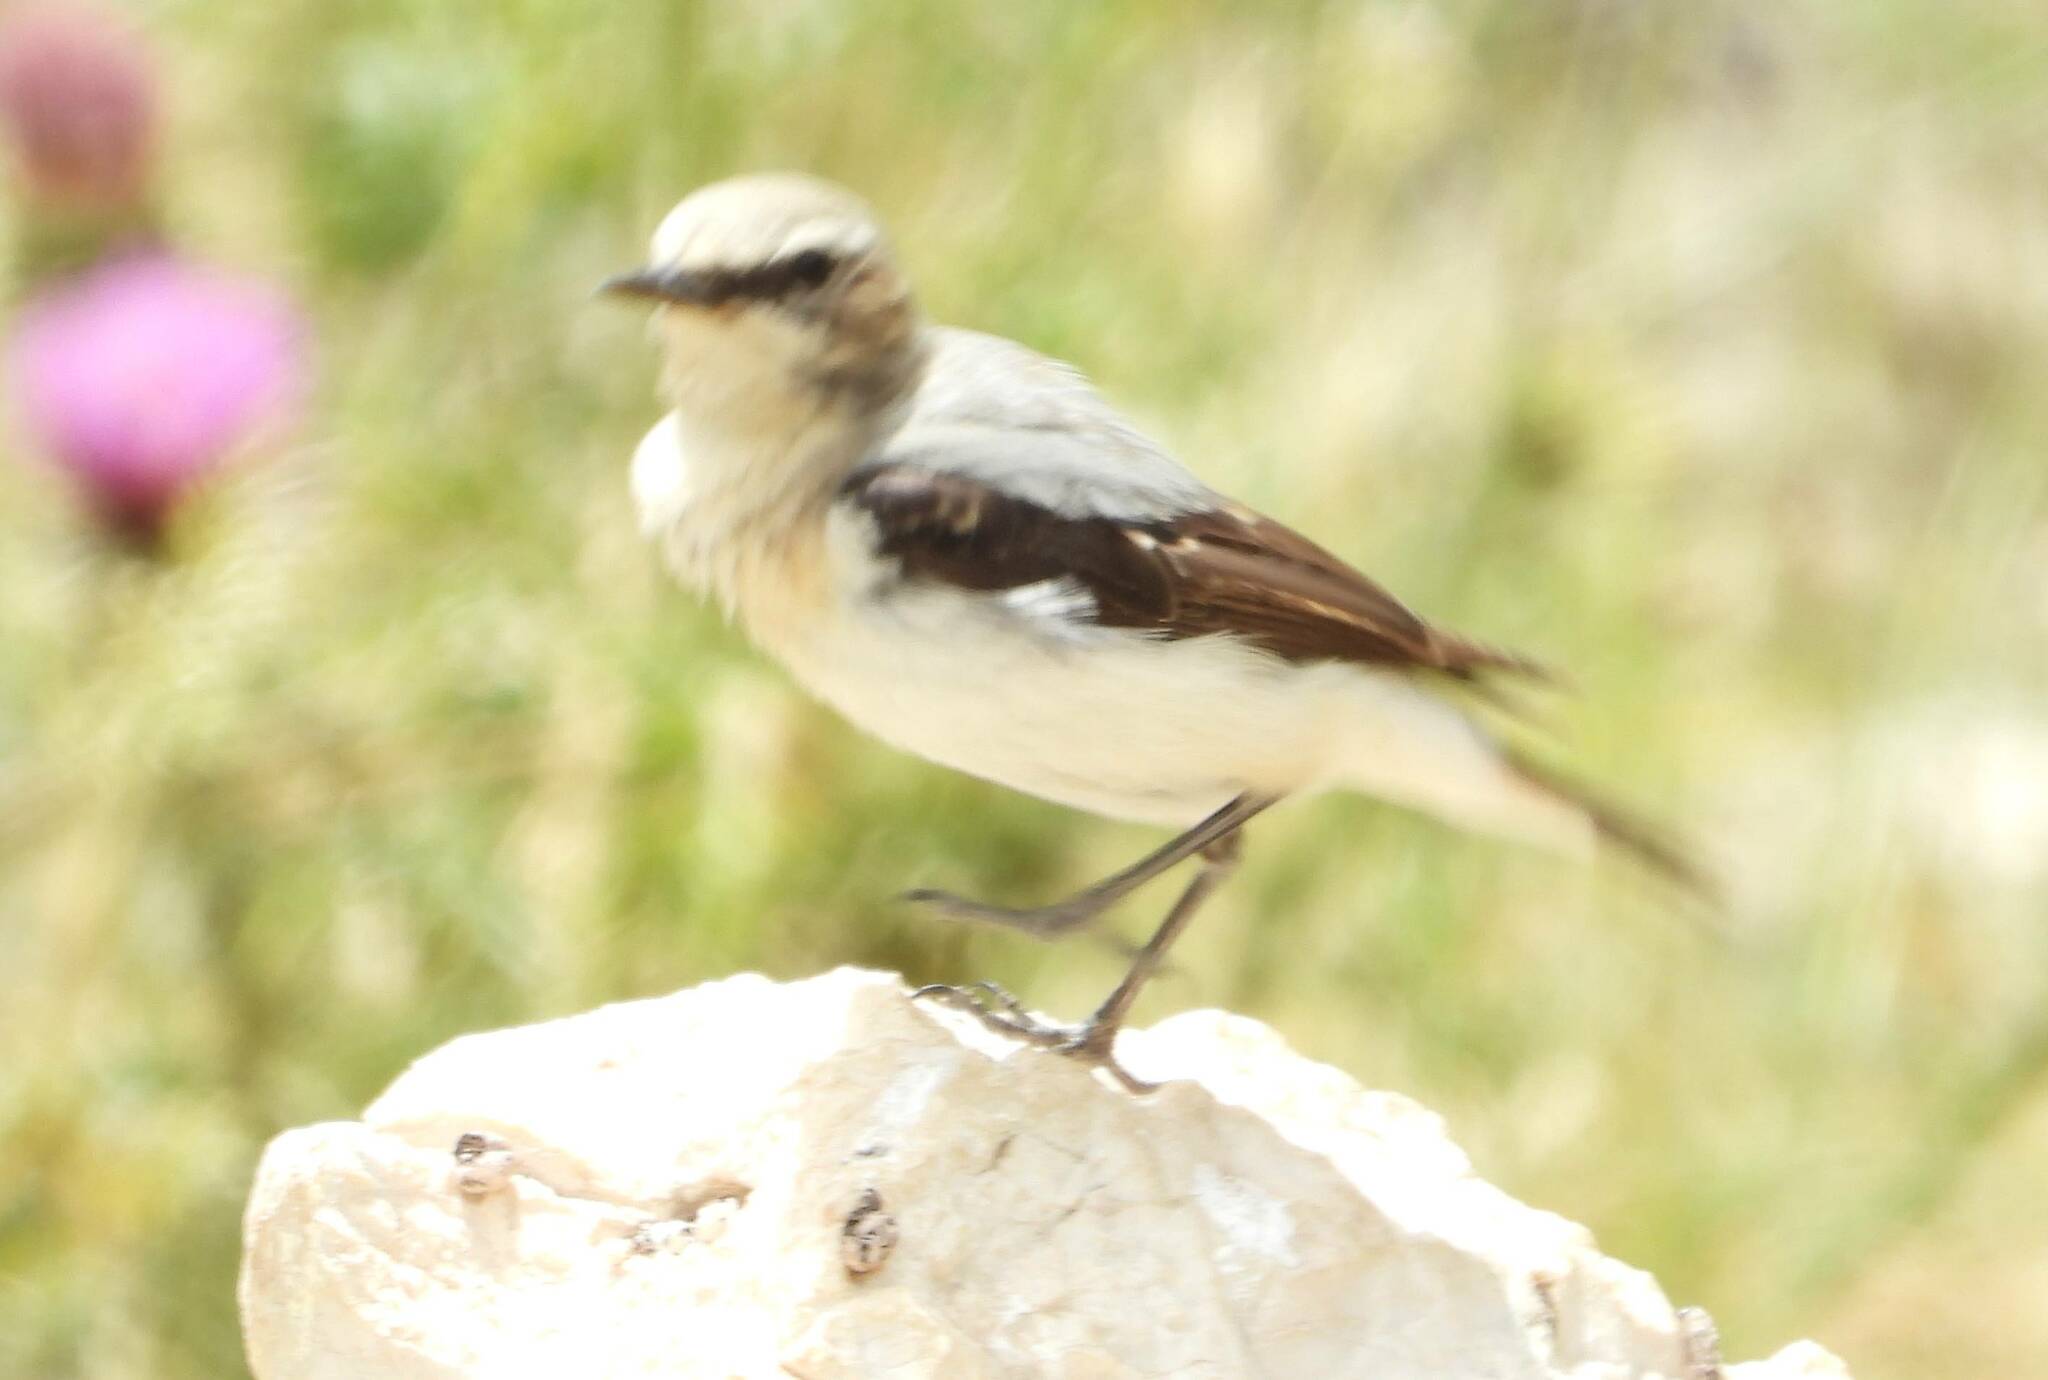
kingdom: Animalia
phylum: Chordata
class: Aves
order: Passeriformes
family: Muscicapidae
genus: Oenanthe
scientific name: Oenanthe oenanthe
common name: Northern wheatear
